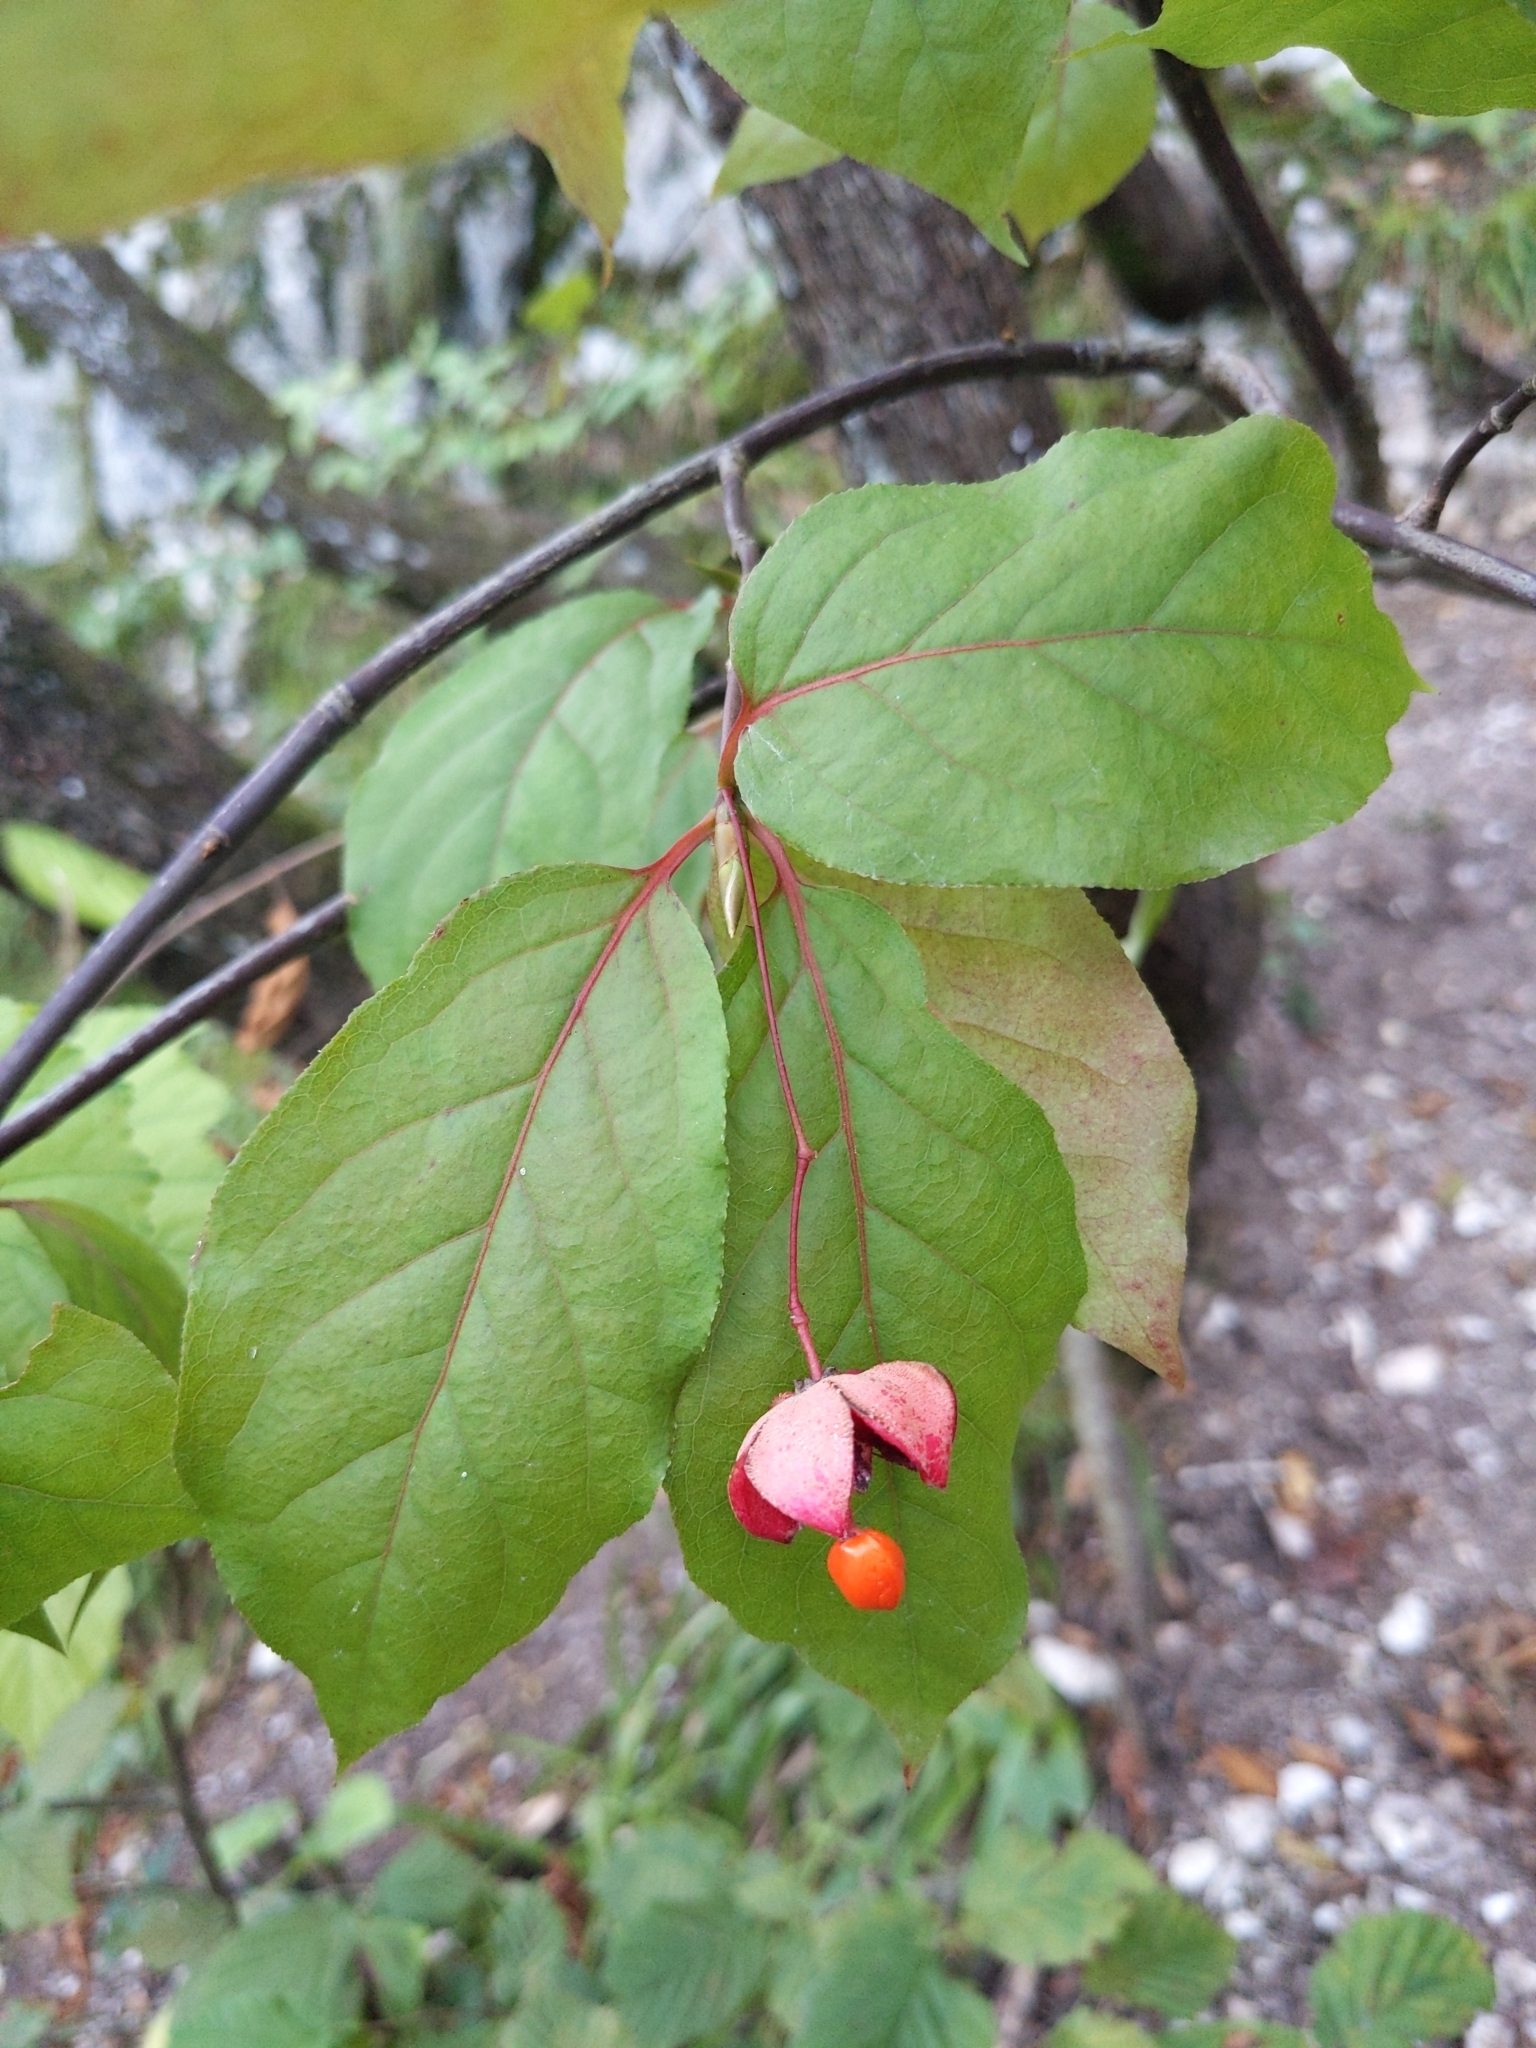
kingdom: Plantae
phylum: Tracheophyta
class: Magnoliopsida
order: Celastrales
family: Celastraceae
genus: Euonymus
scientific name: Euonymus latifolius
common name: Large-leaved spindle
